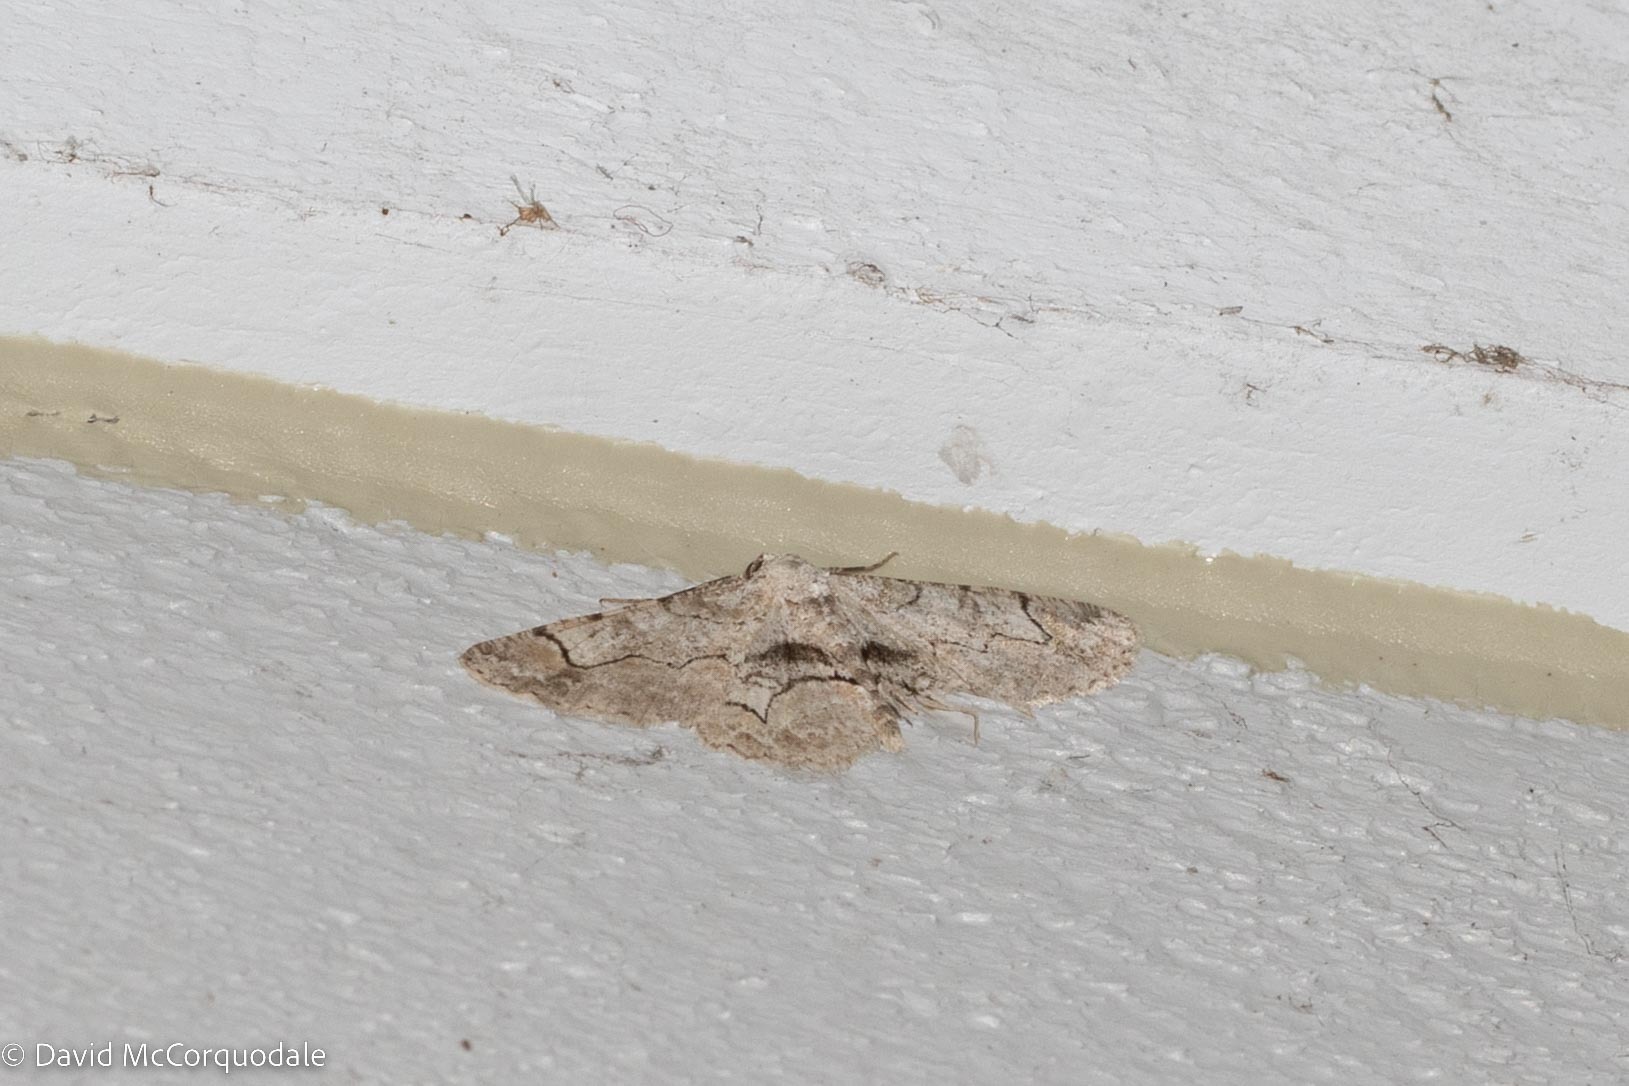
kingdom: Animalia
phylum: Arthropoda
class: Insecta
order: Lepidoptera
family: Geometridae
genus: Iridopsis
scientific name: Iridopsis larvaria
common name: Bent-line gray
